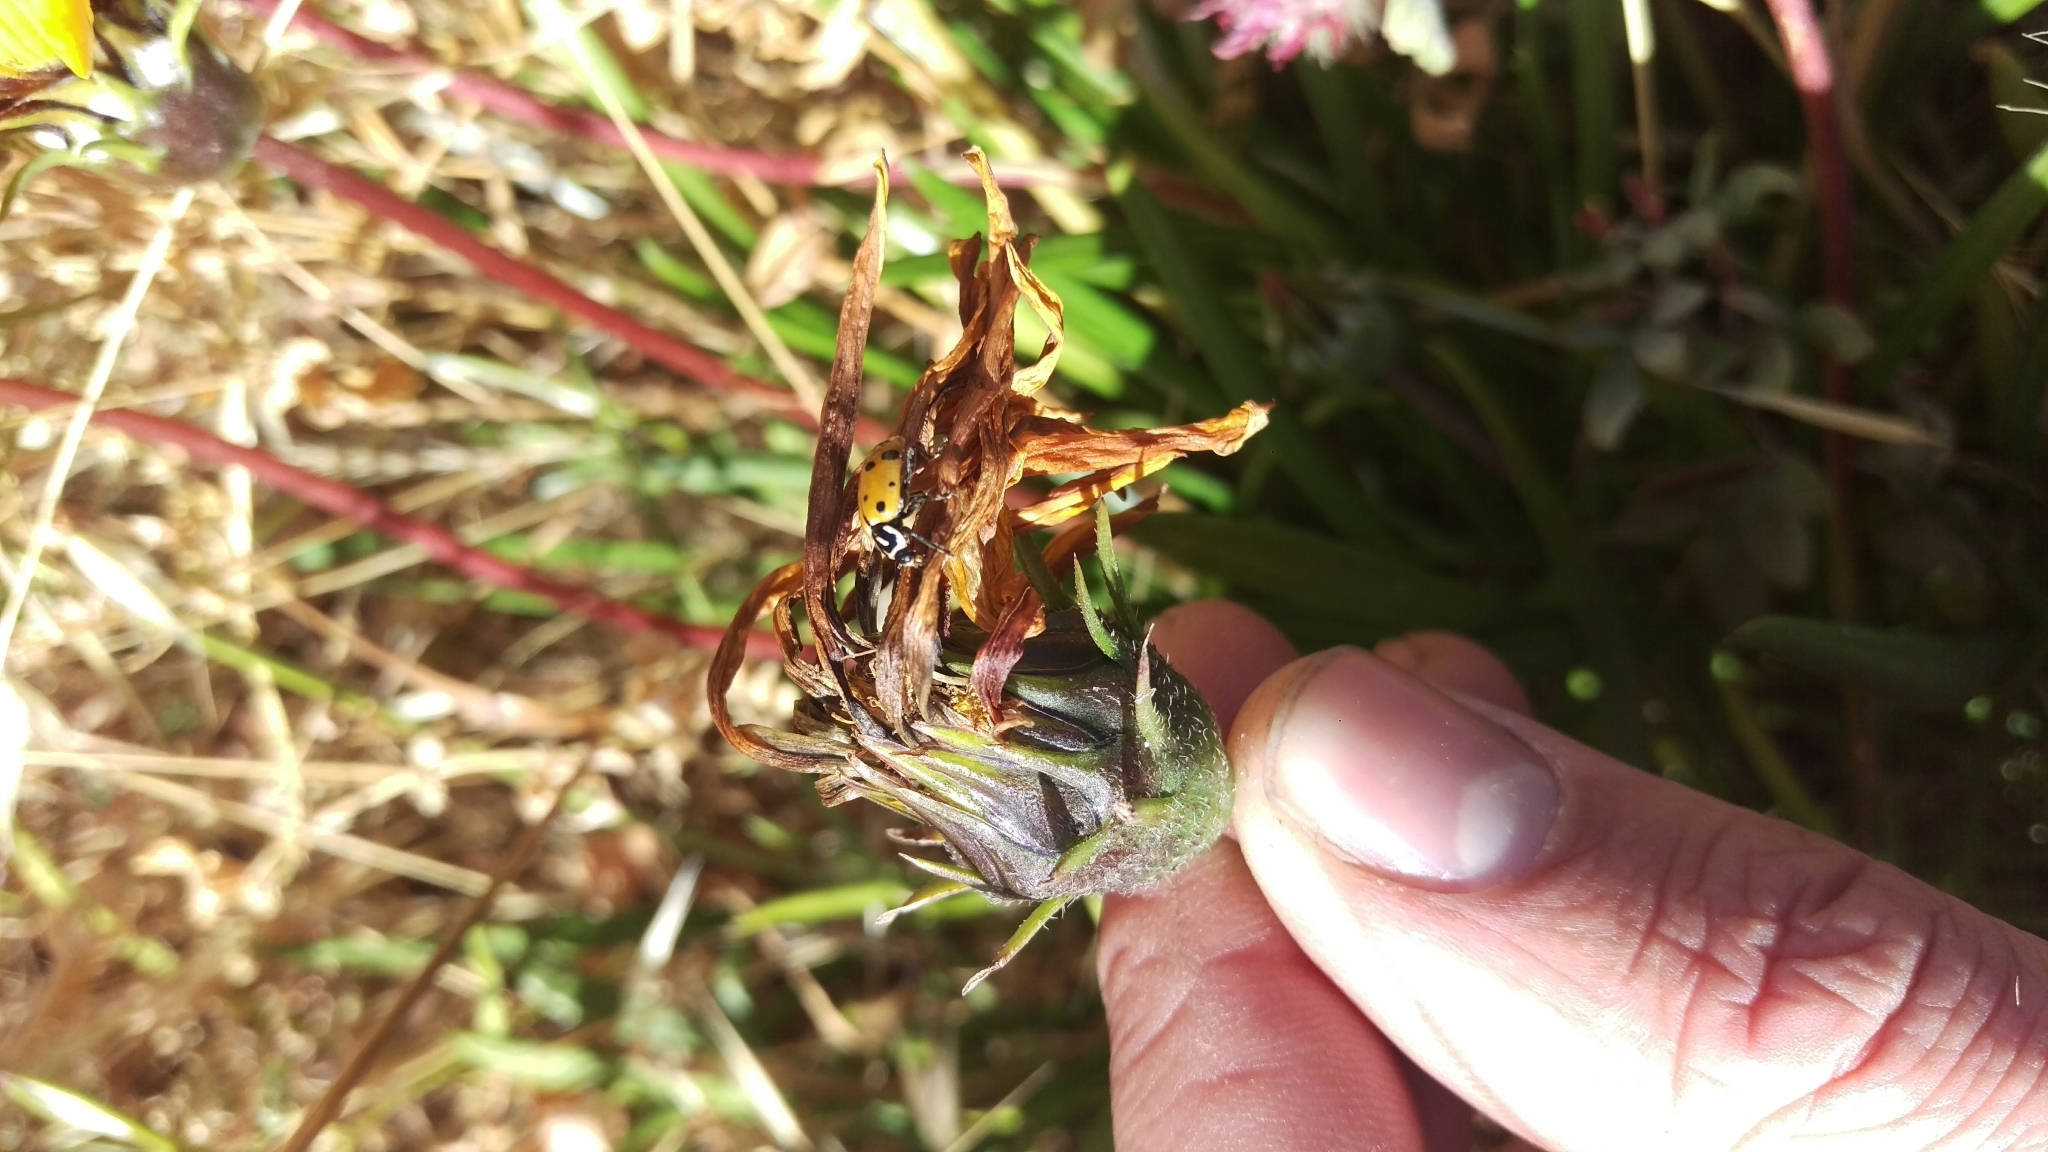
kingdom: Animalia
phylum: Arthropoda
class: Insecta
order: Coleoptera
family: Coccinellidae
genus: Hippodamia
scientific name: Hippodamia convergens
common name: Convergent lady beetle
